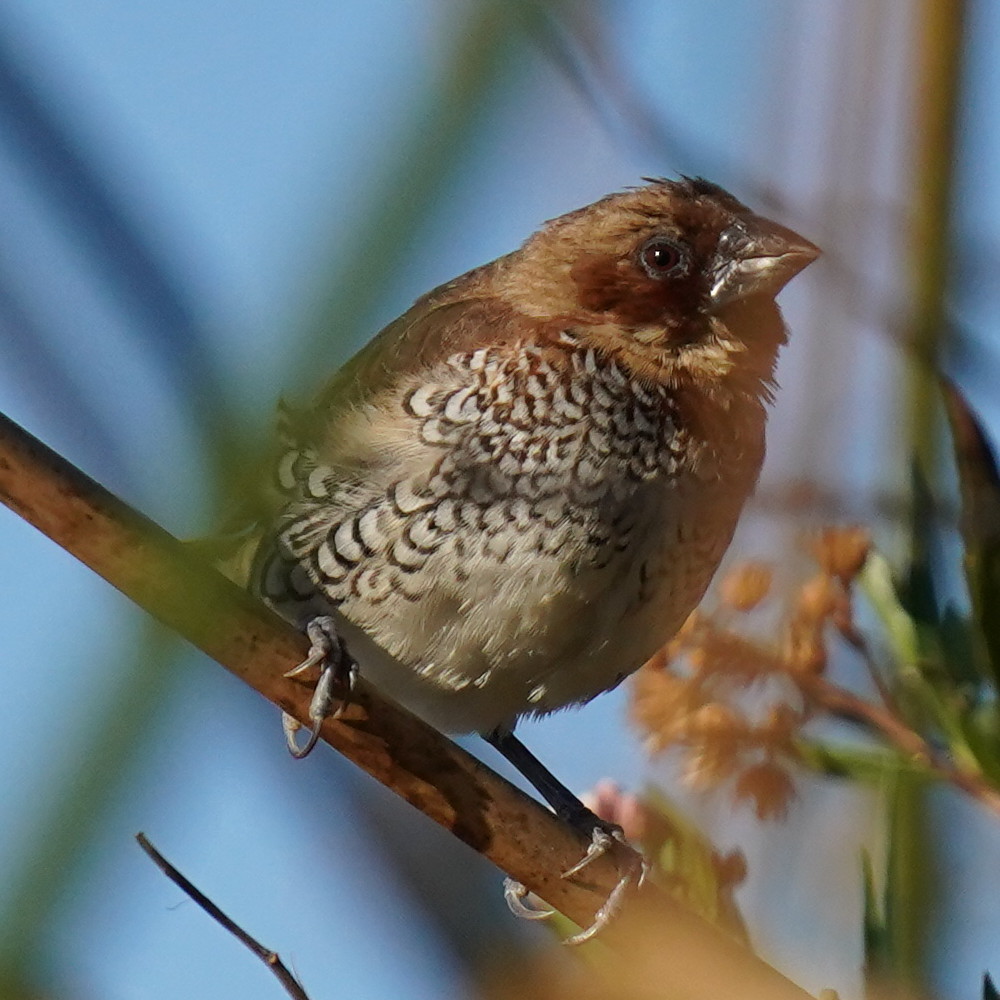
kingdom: Animalia
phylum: Chordata
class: Aves
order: Passeriformes
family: Estrildidae
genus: Lonchura
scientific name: Lonchura punctulata
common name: Scaly-breasted munia
